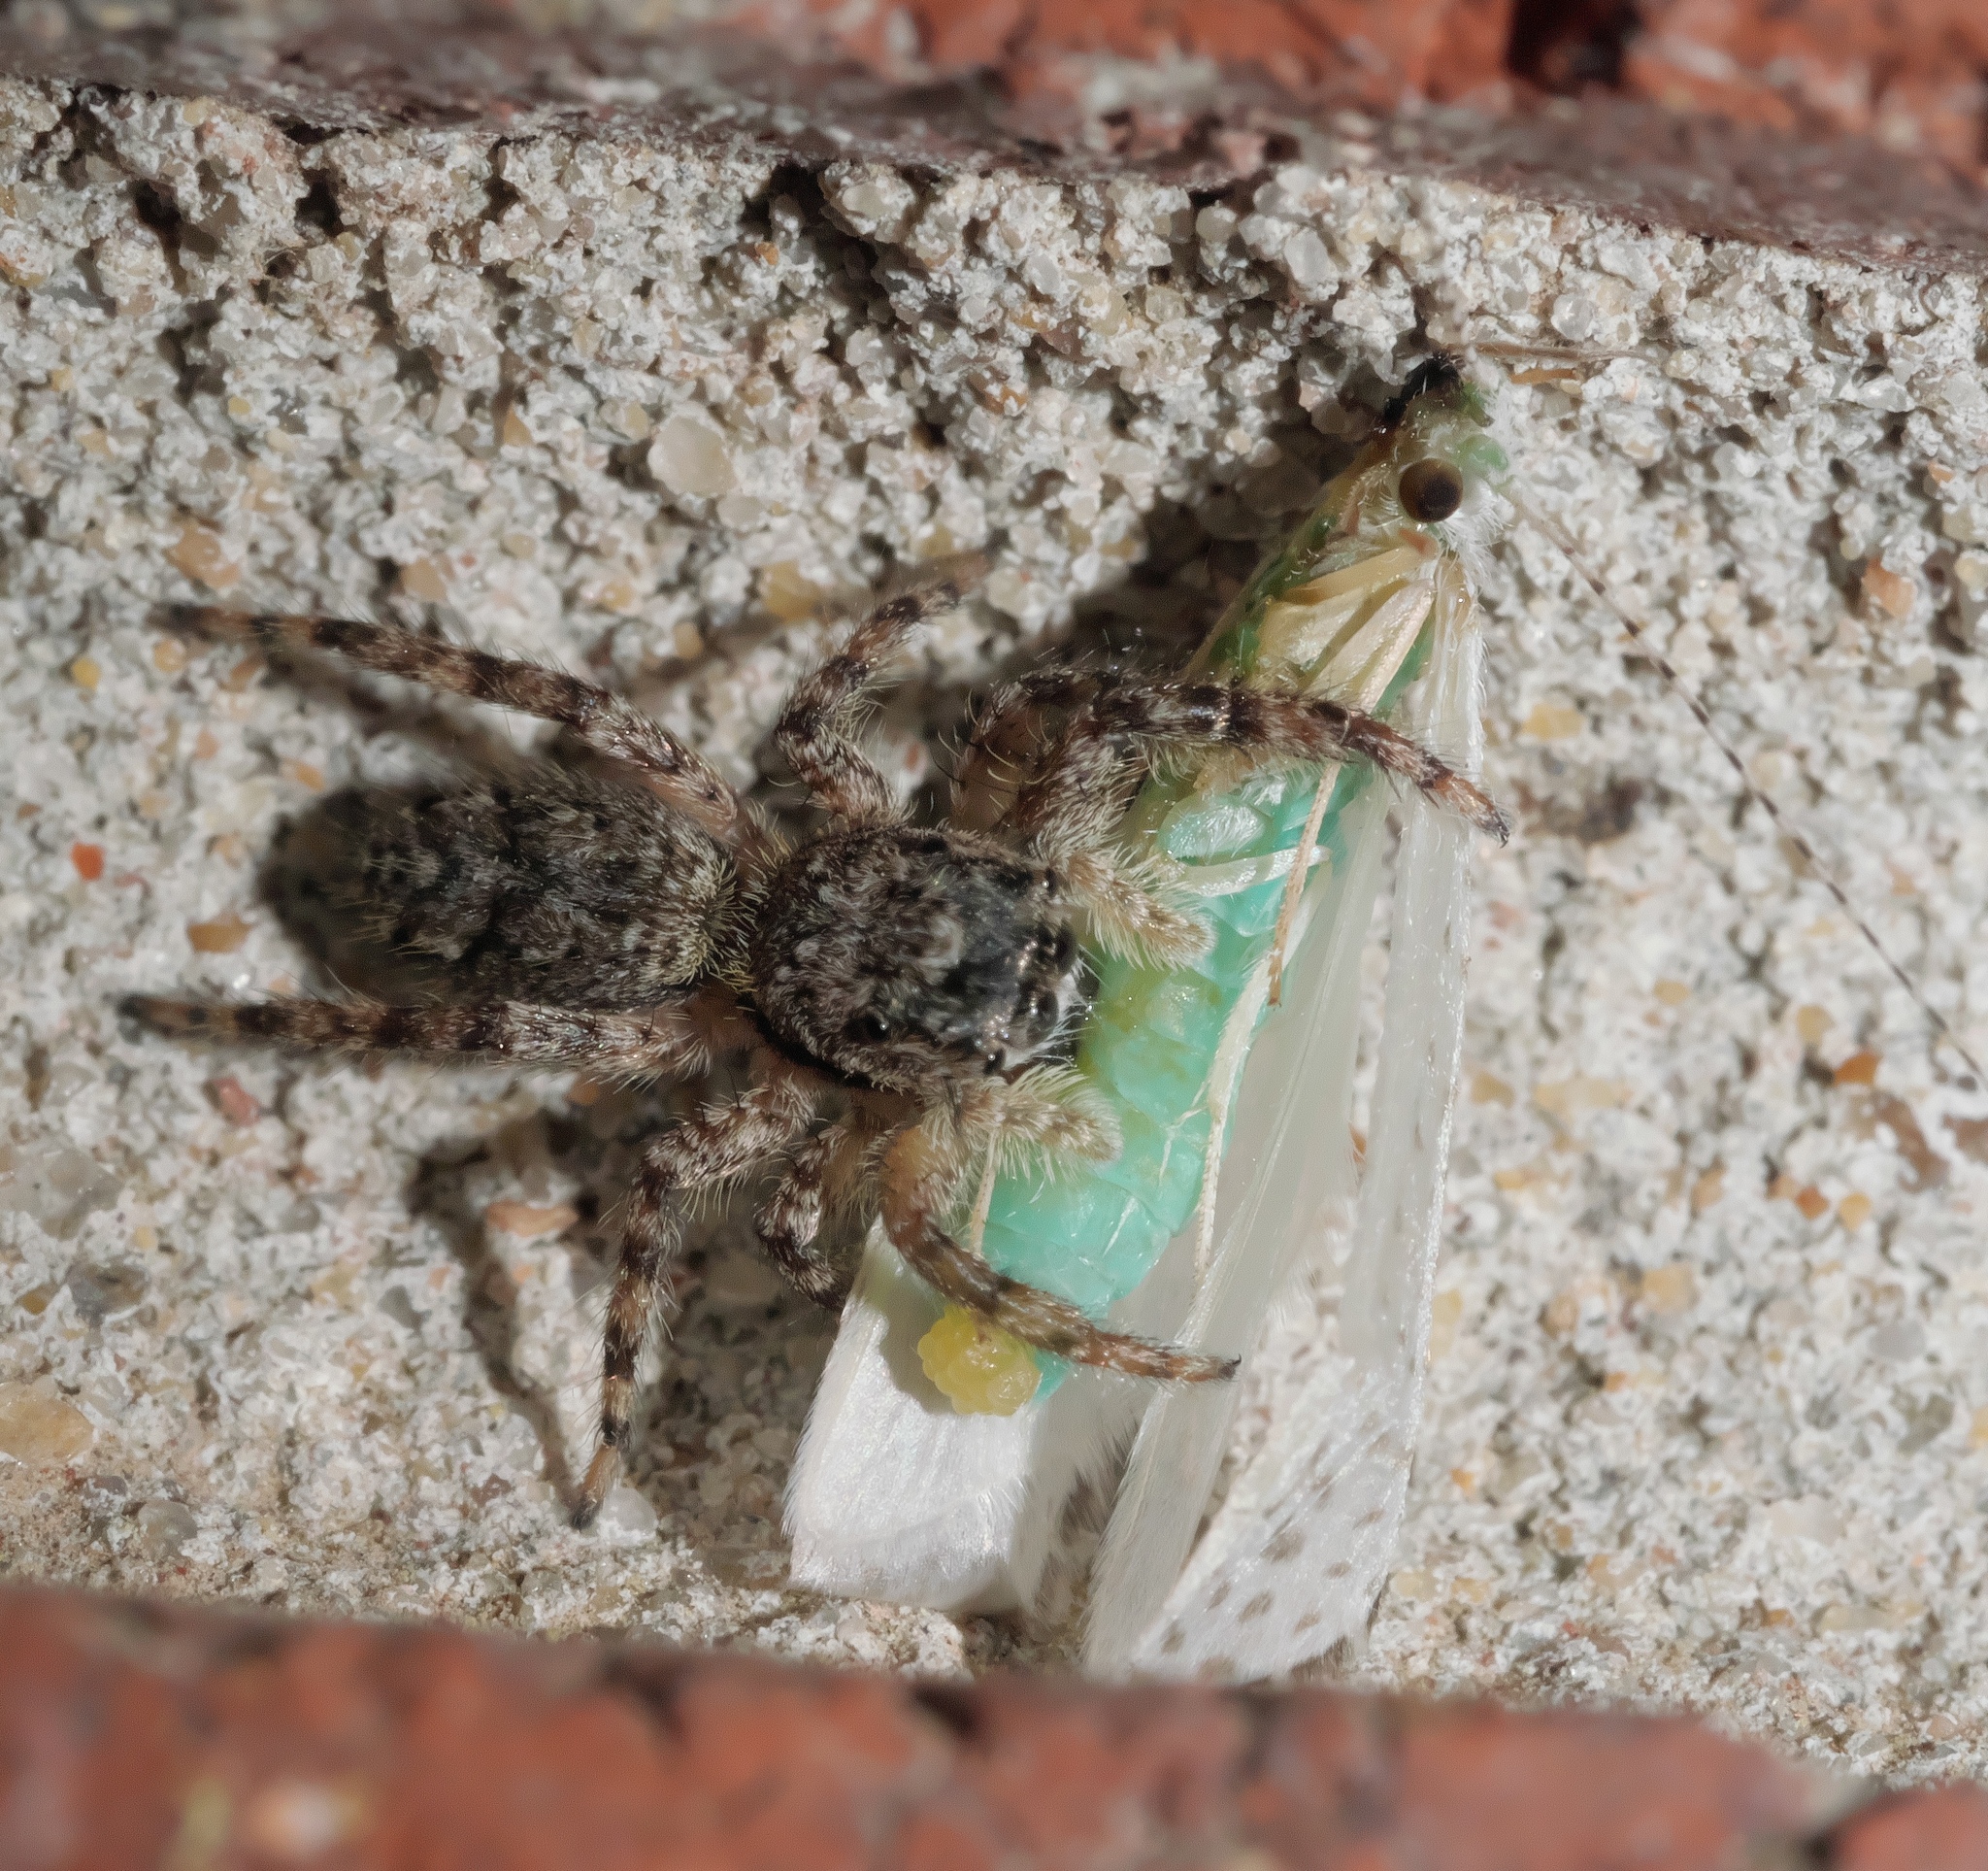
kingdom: Animalia
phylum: Arthropoda
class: Arachnida
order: Araneae
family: Salticidae
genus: Platycryptus
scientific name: Platycryptus undatus
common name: Tan jumping spider
